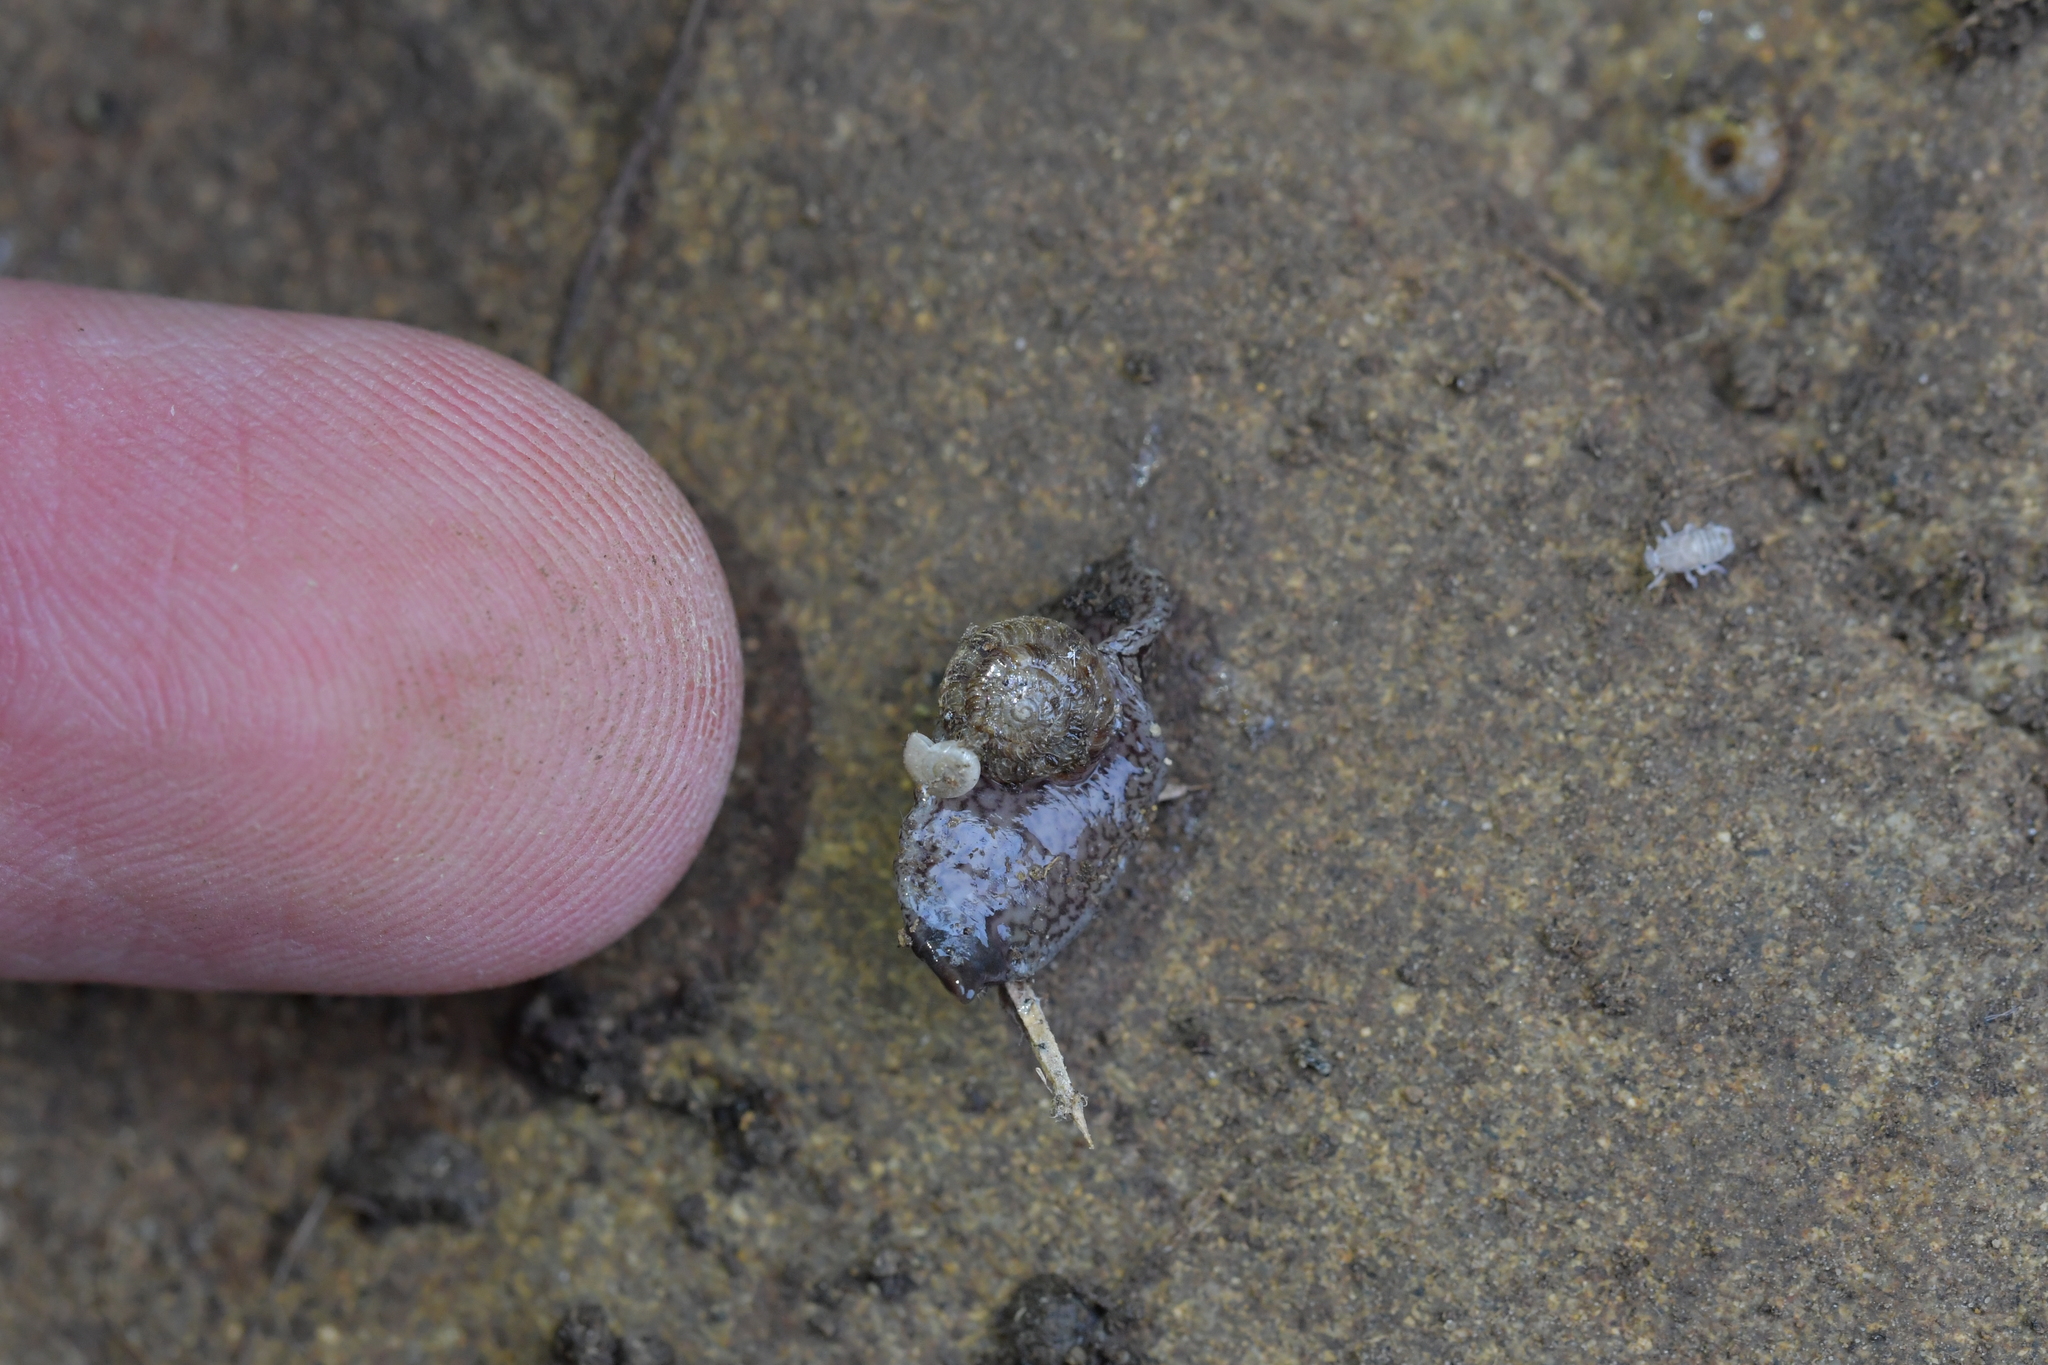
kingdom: Animalia
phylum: Platyhelminthes
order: Tricladida
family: Geoplanidae
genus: Artioposthia
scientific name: Artioposthia exulans
